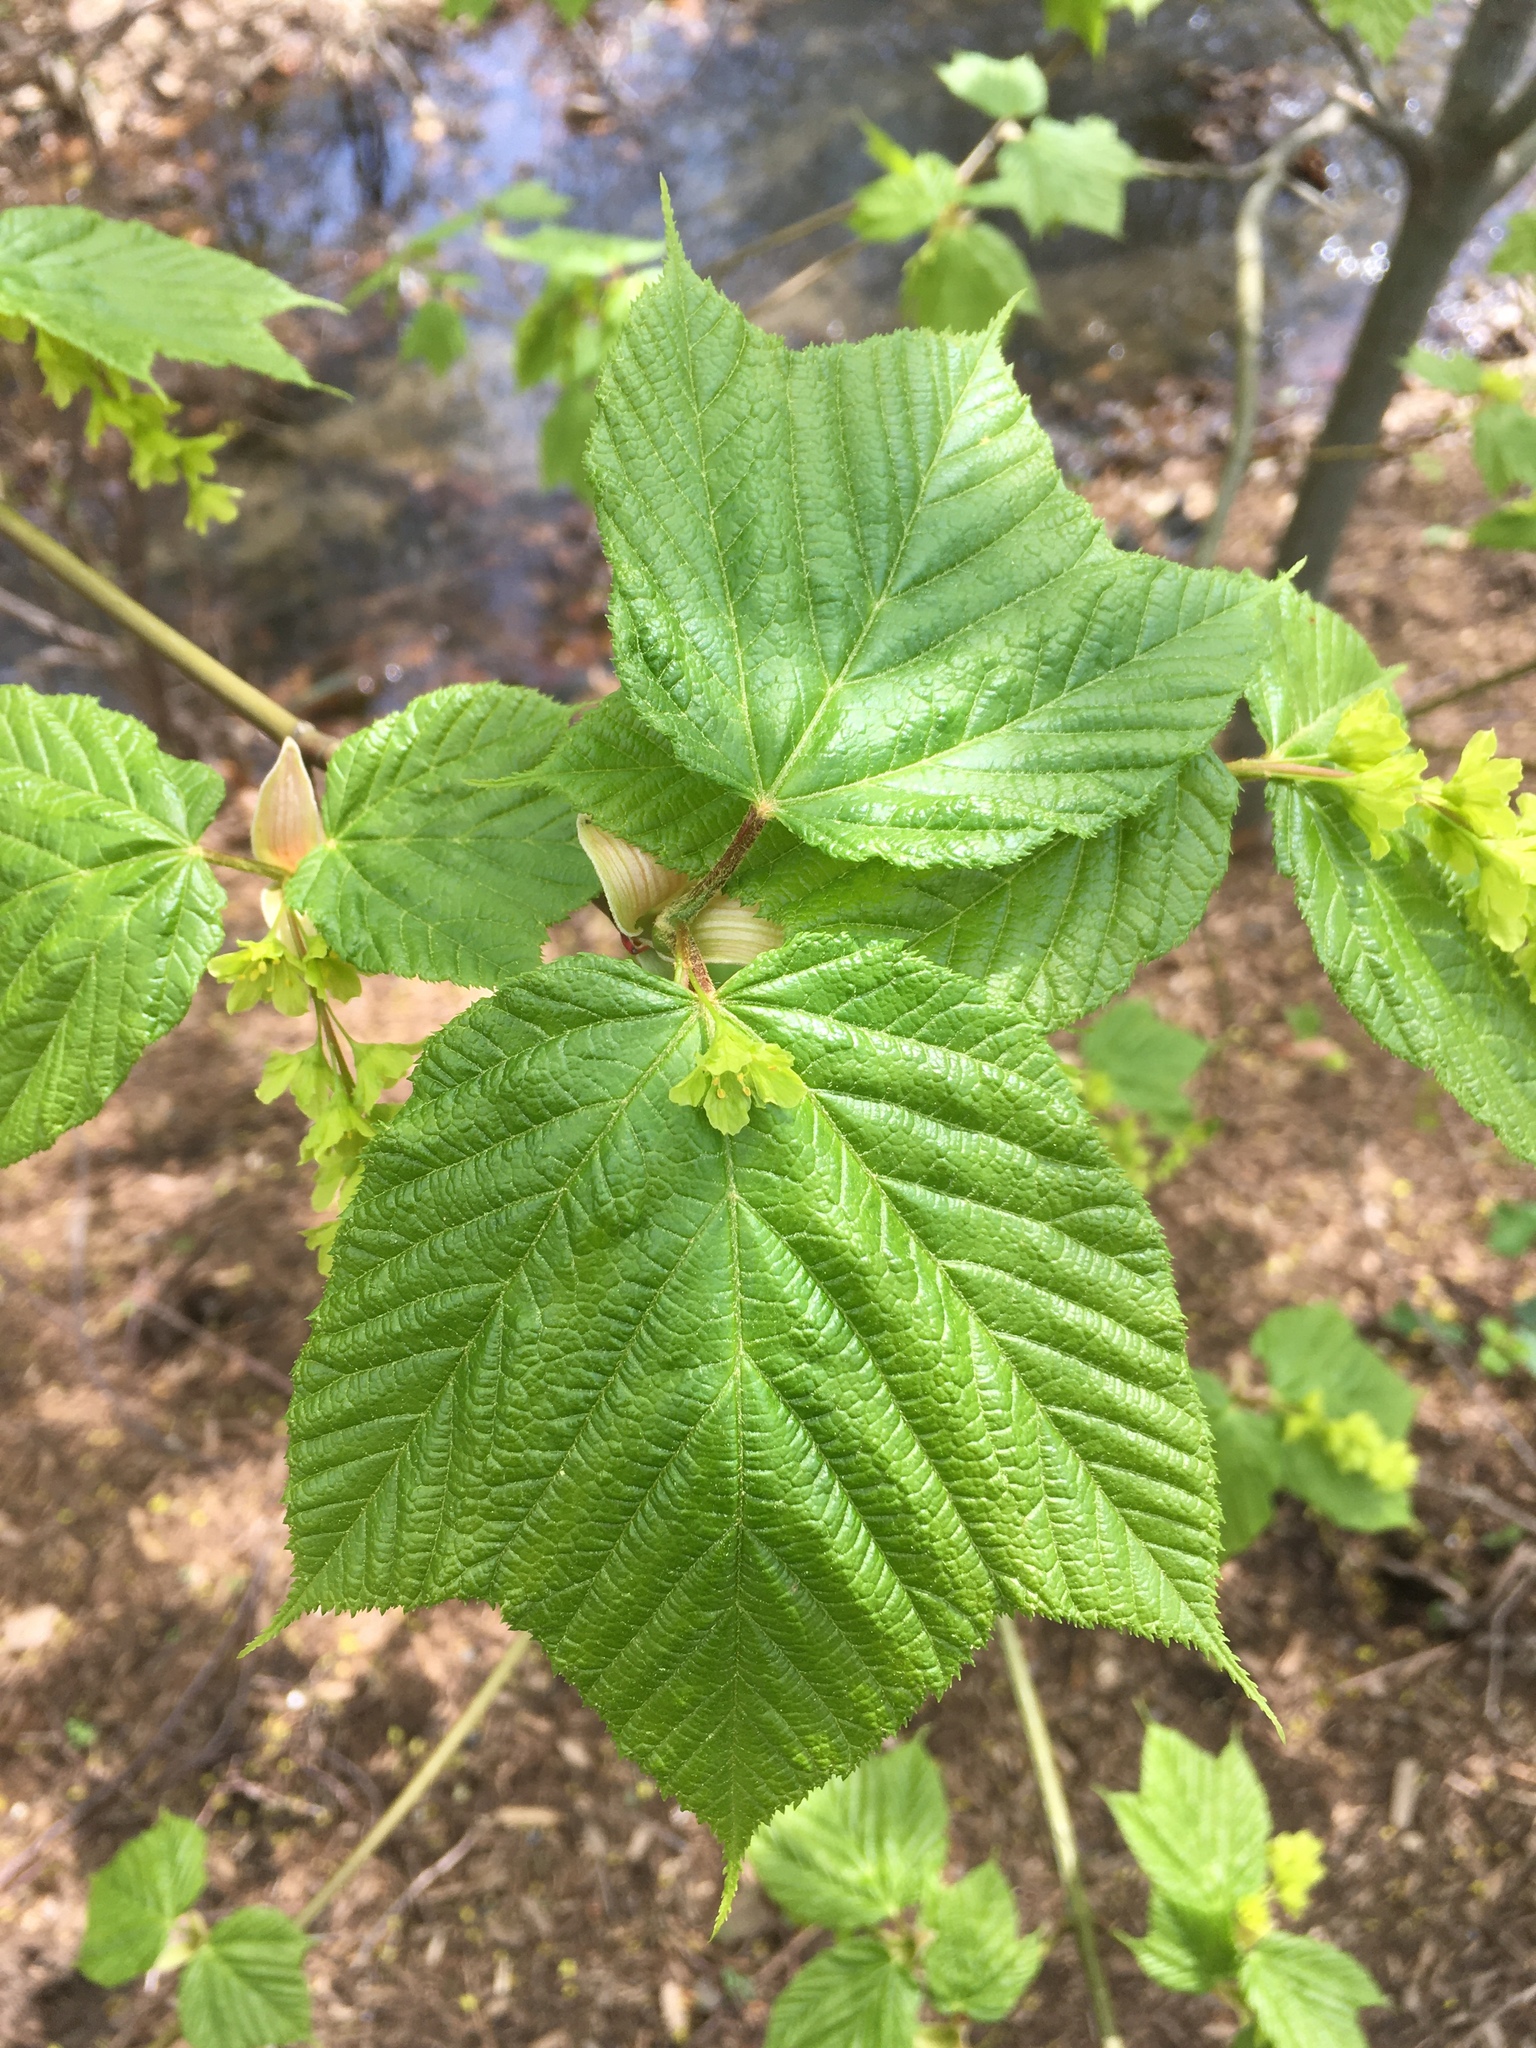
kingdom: Plantae
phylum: Tracheophyta
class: Magnoliopsida
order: Sapindales
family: Sapindaceae
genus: Acer
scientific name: Acer pensylvanicum
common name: Moosewood
